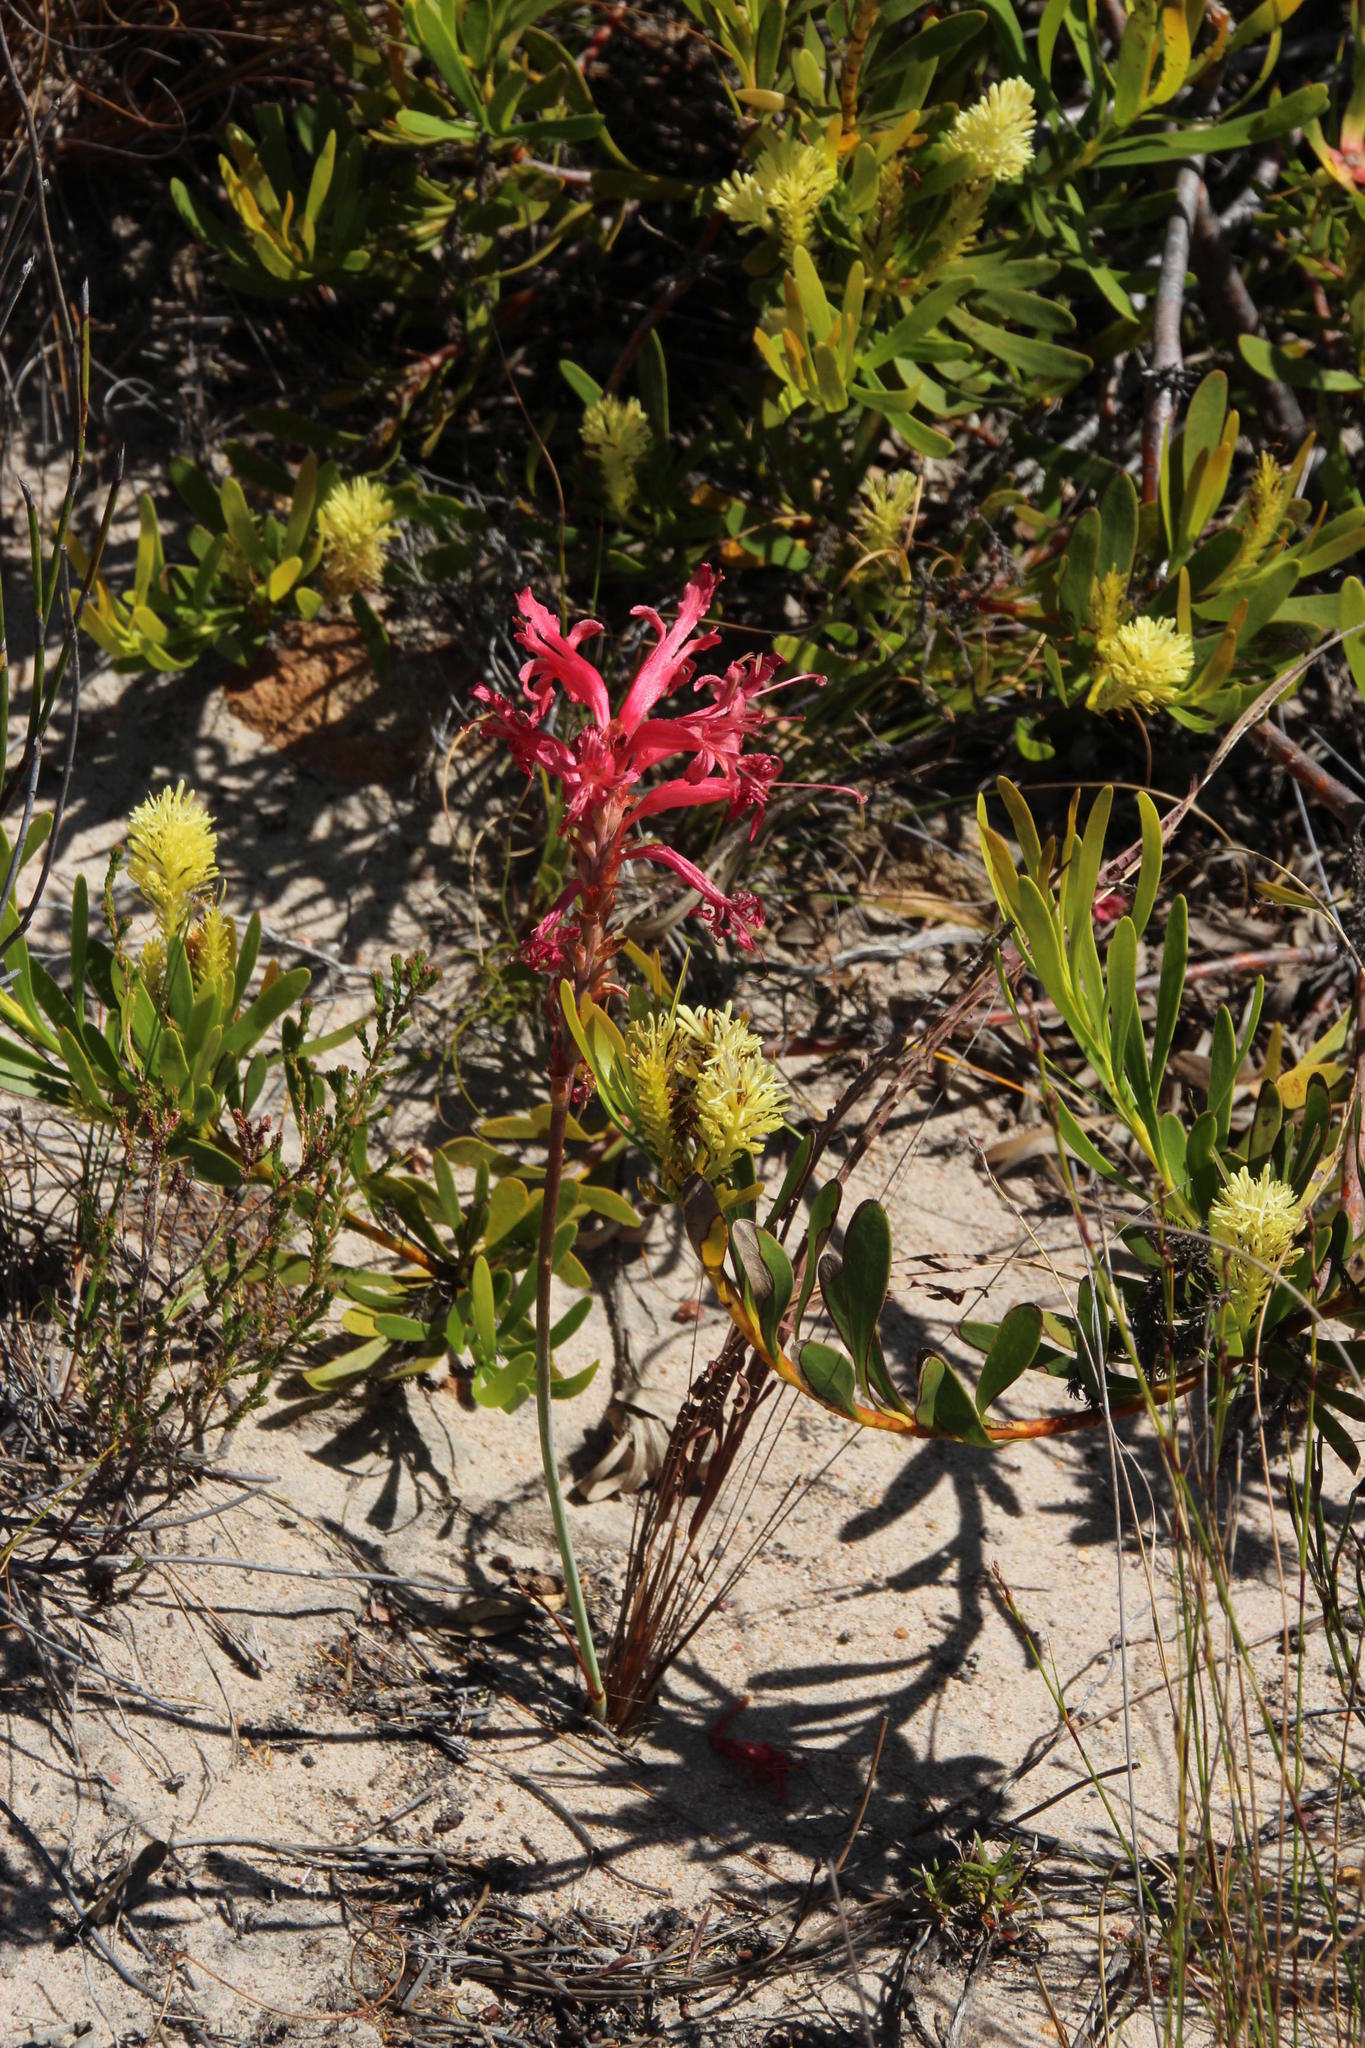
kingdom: Plantae
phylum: Tracheophyta
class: Liliopsida
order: Asparagales
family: Iridaceae
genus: Tritoniopsis
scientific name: Tritoniopsis antholyza
